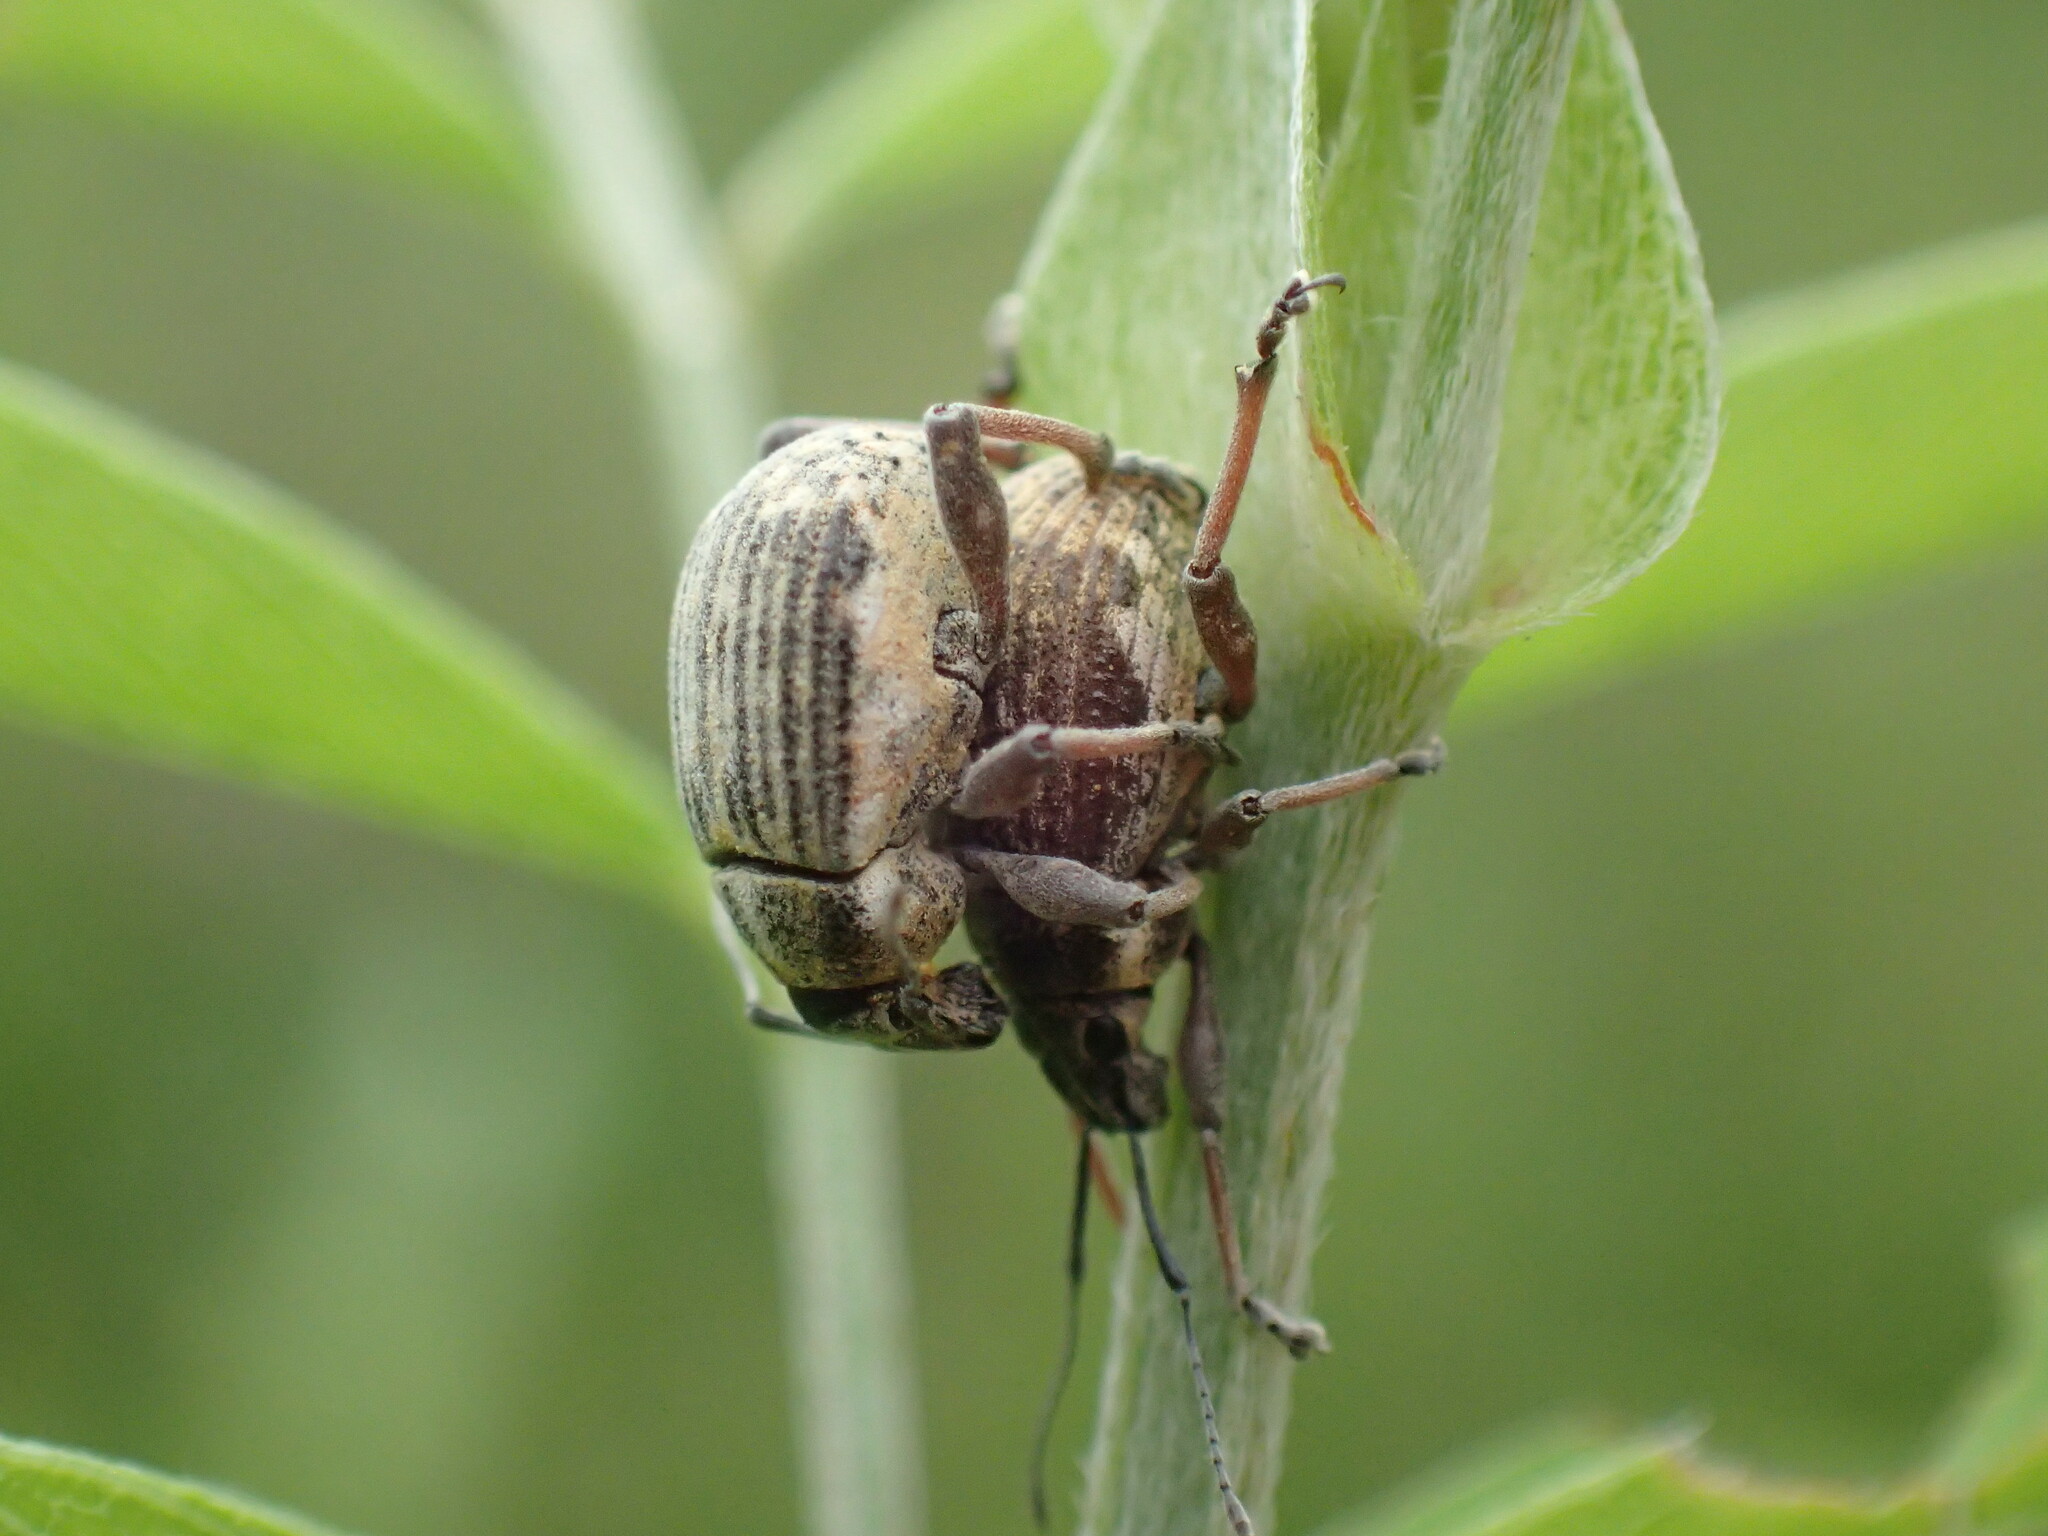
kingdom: Animalia
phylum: Arthropoda
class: Insecta
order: Coleoptera
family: Curculionidae
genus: Sciobius
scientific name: Sciobius pullus
